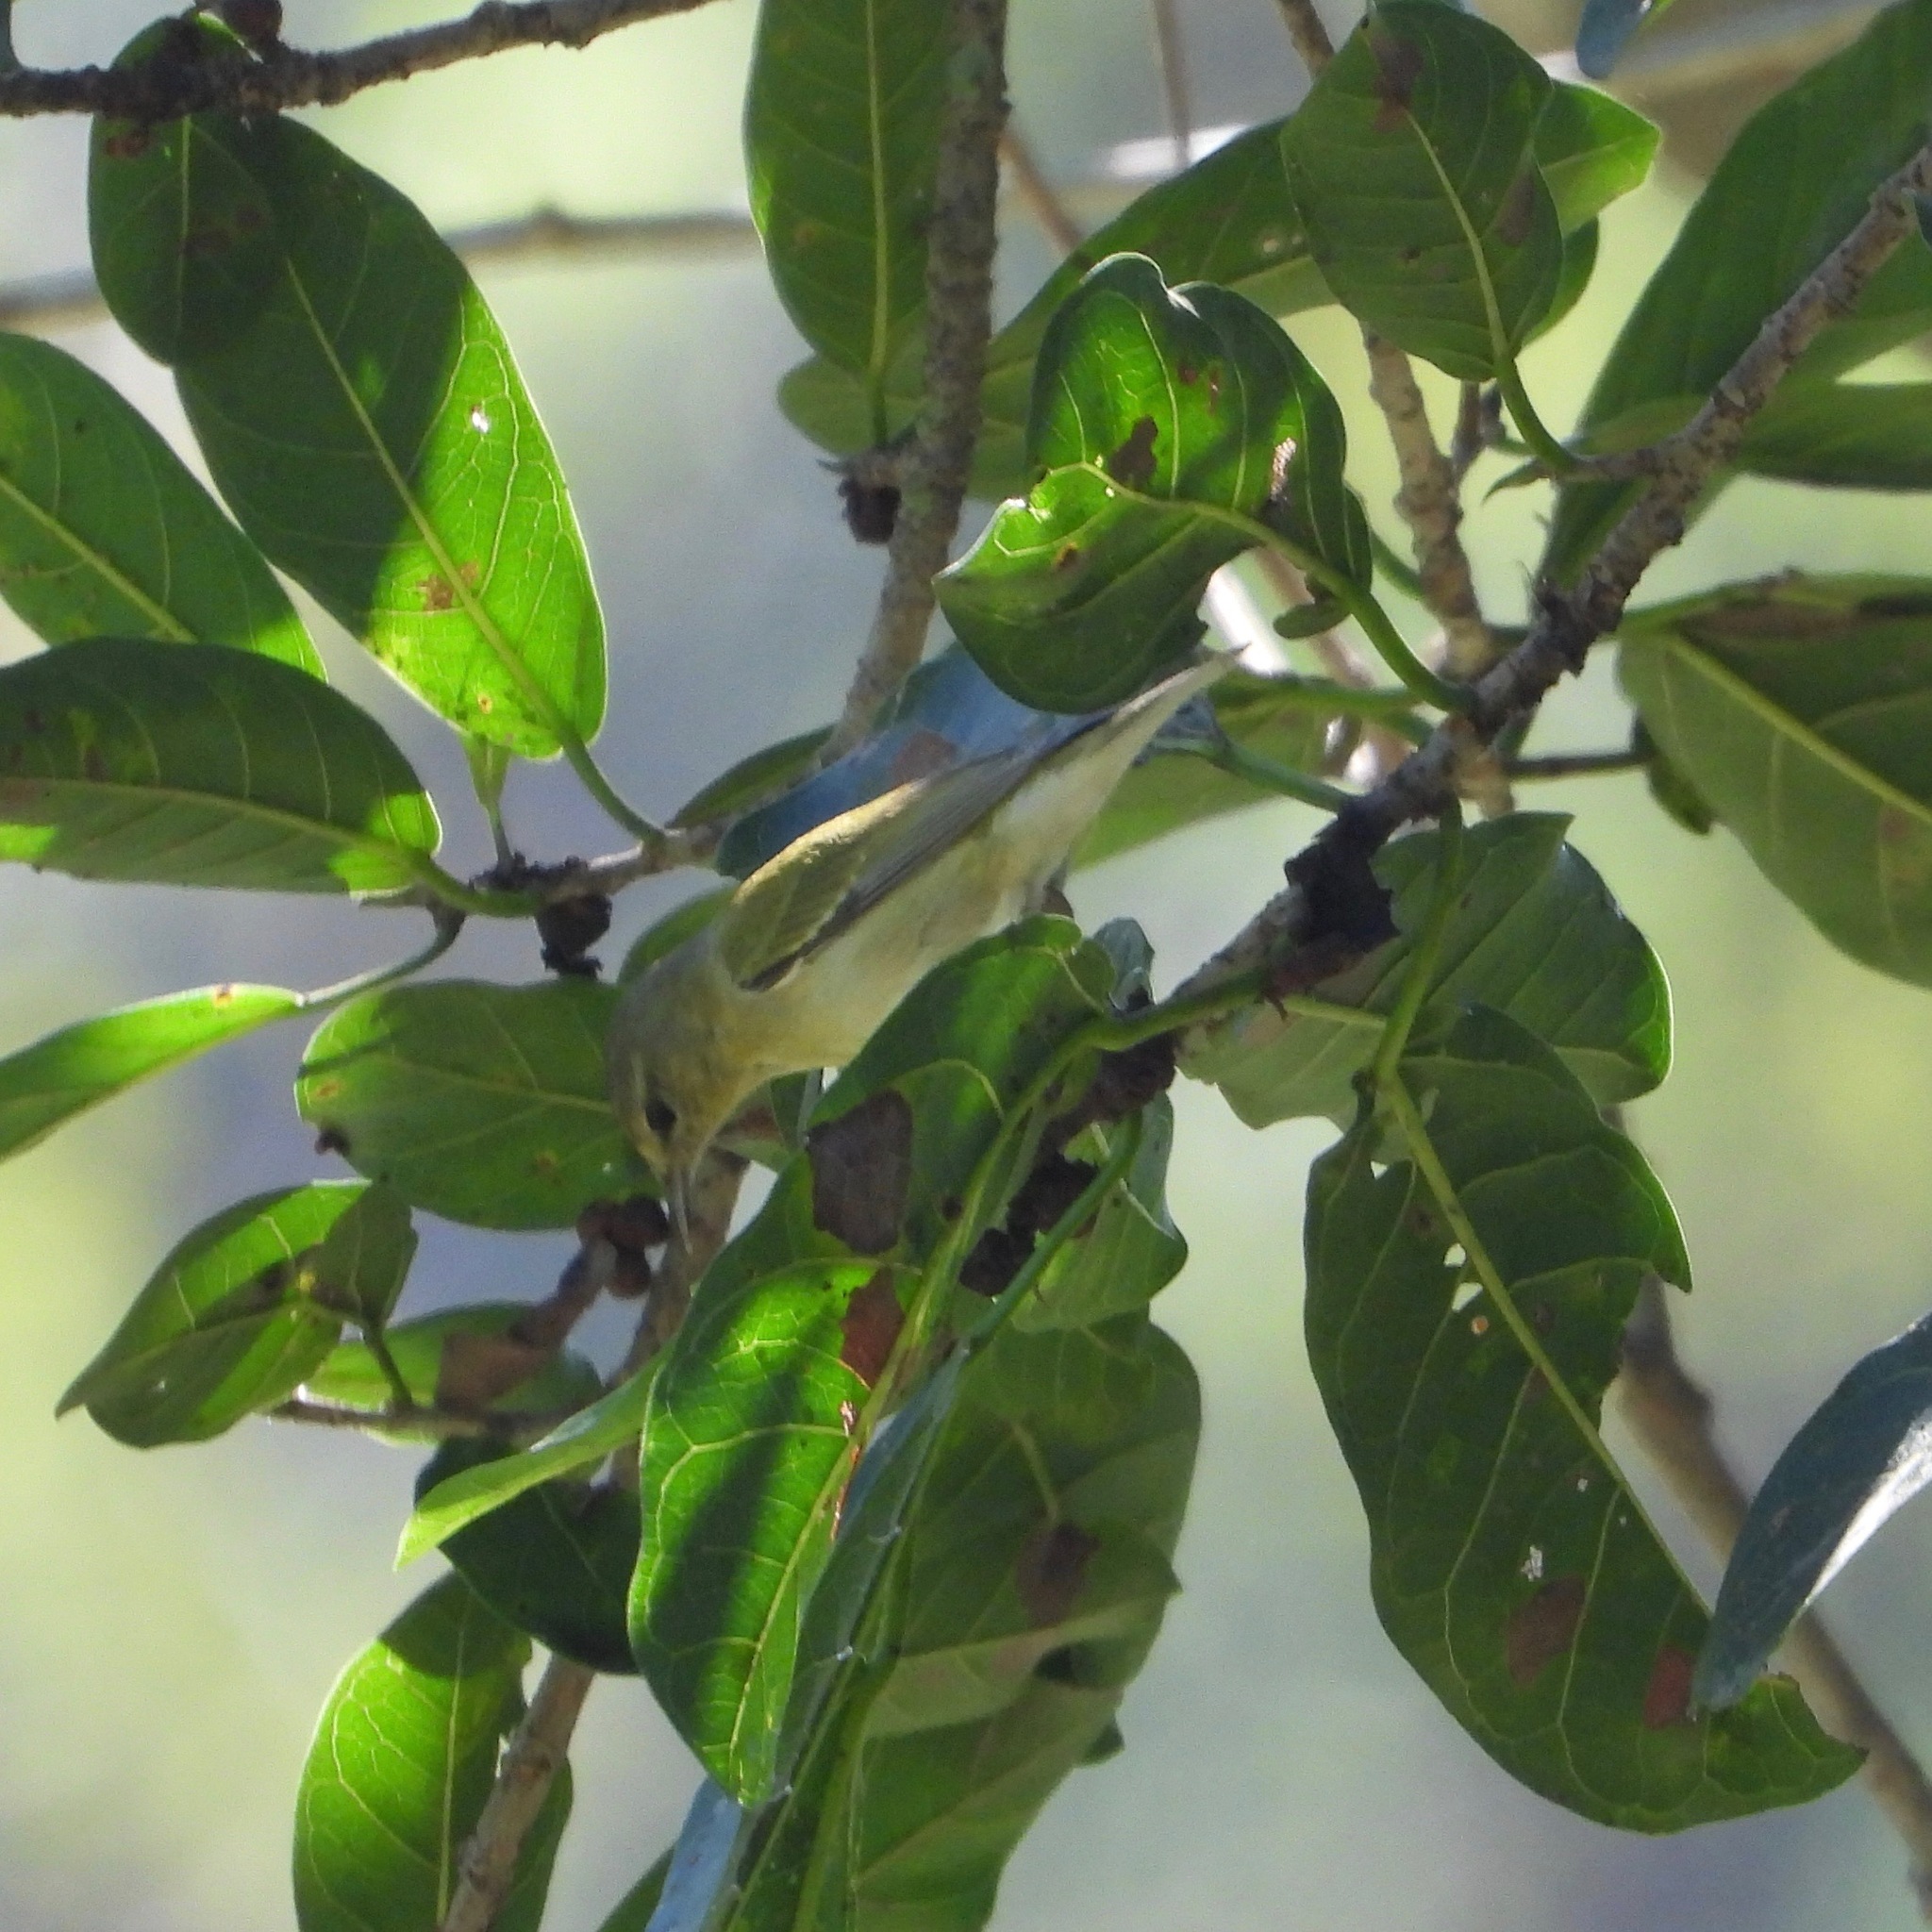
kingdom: Animalia
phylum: Chordata
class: Aves
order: Passeriformes
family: Parulidae
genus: Leiothlypis
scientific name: Leiothlypis peregrina
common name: Tennessee warbler
